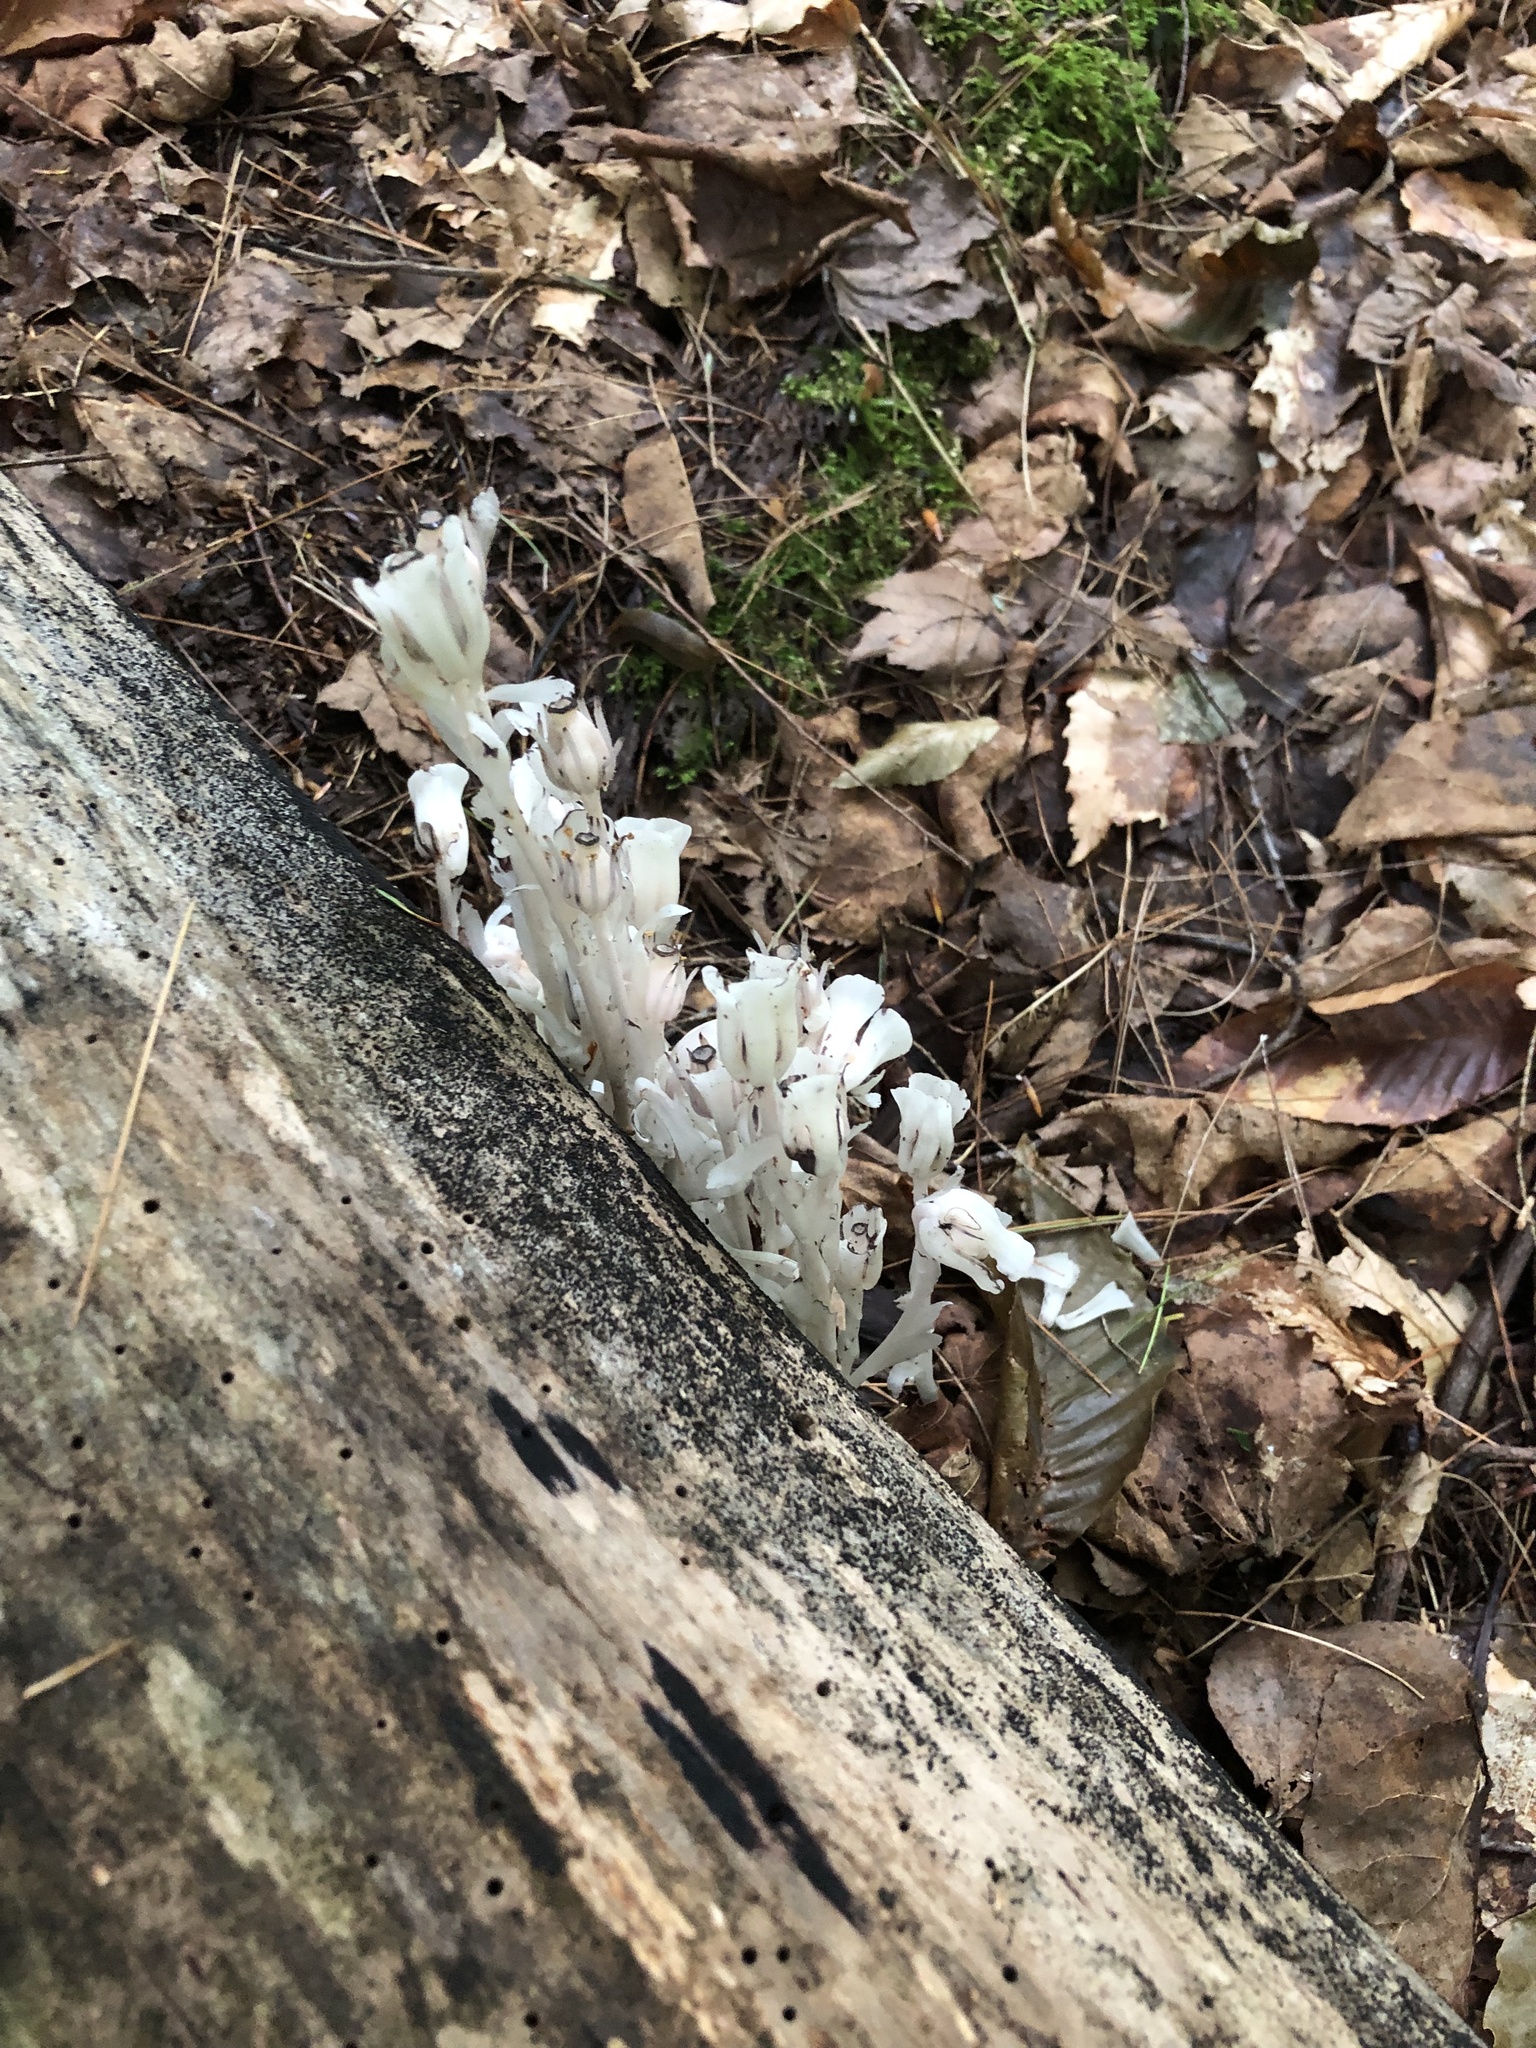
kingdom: Plantae
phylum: Tracheophyta
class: Magnoliopsida
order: Ericales
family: Ericaceae
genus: Monotropa
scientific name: Monotropa uniflora
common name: Convulsion root
